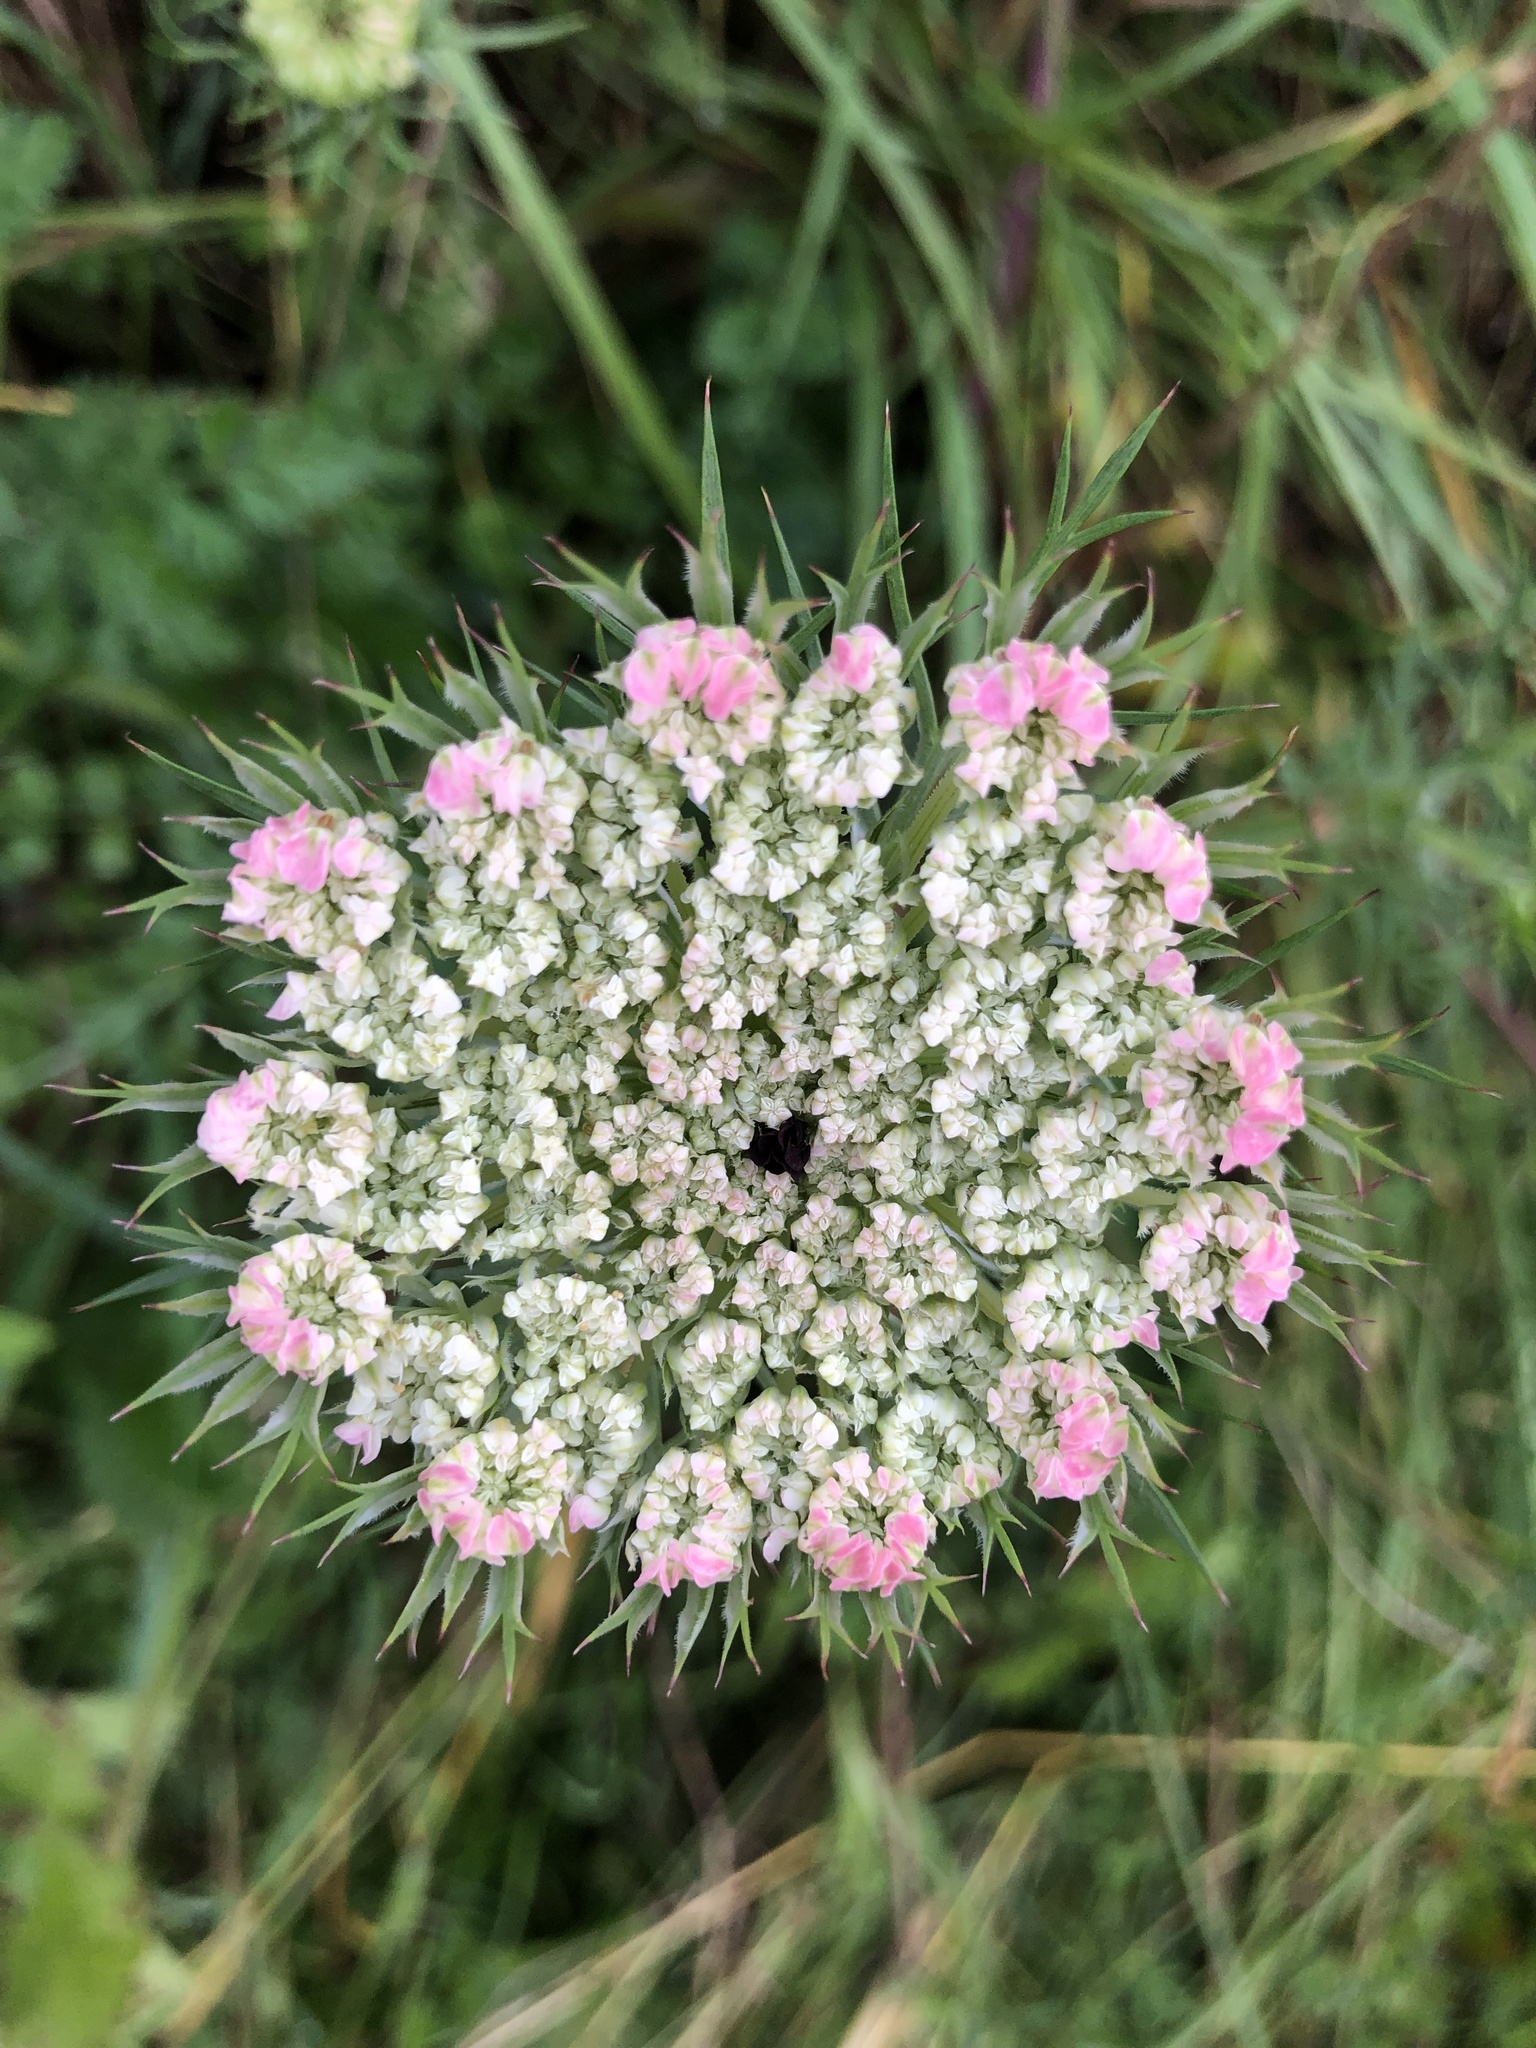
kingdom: Plantae
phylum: Tracheophyta
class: Magnoliopsida
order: Apiales
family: Apiaceae
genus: Daucus
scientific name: Daucus carota
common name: Wild carrot
